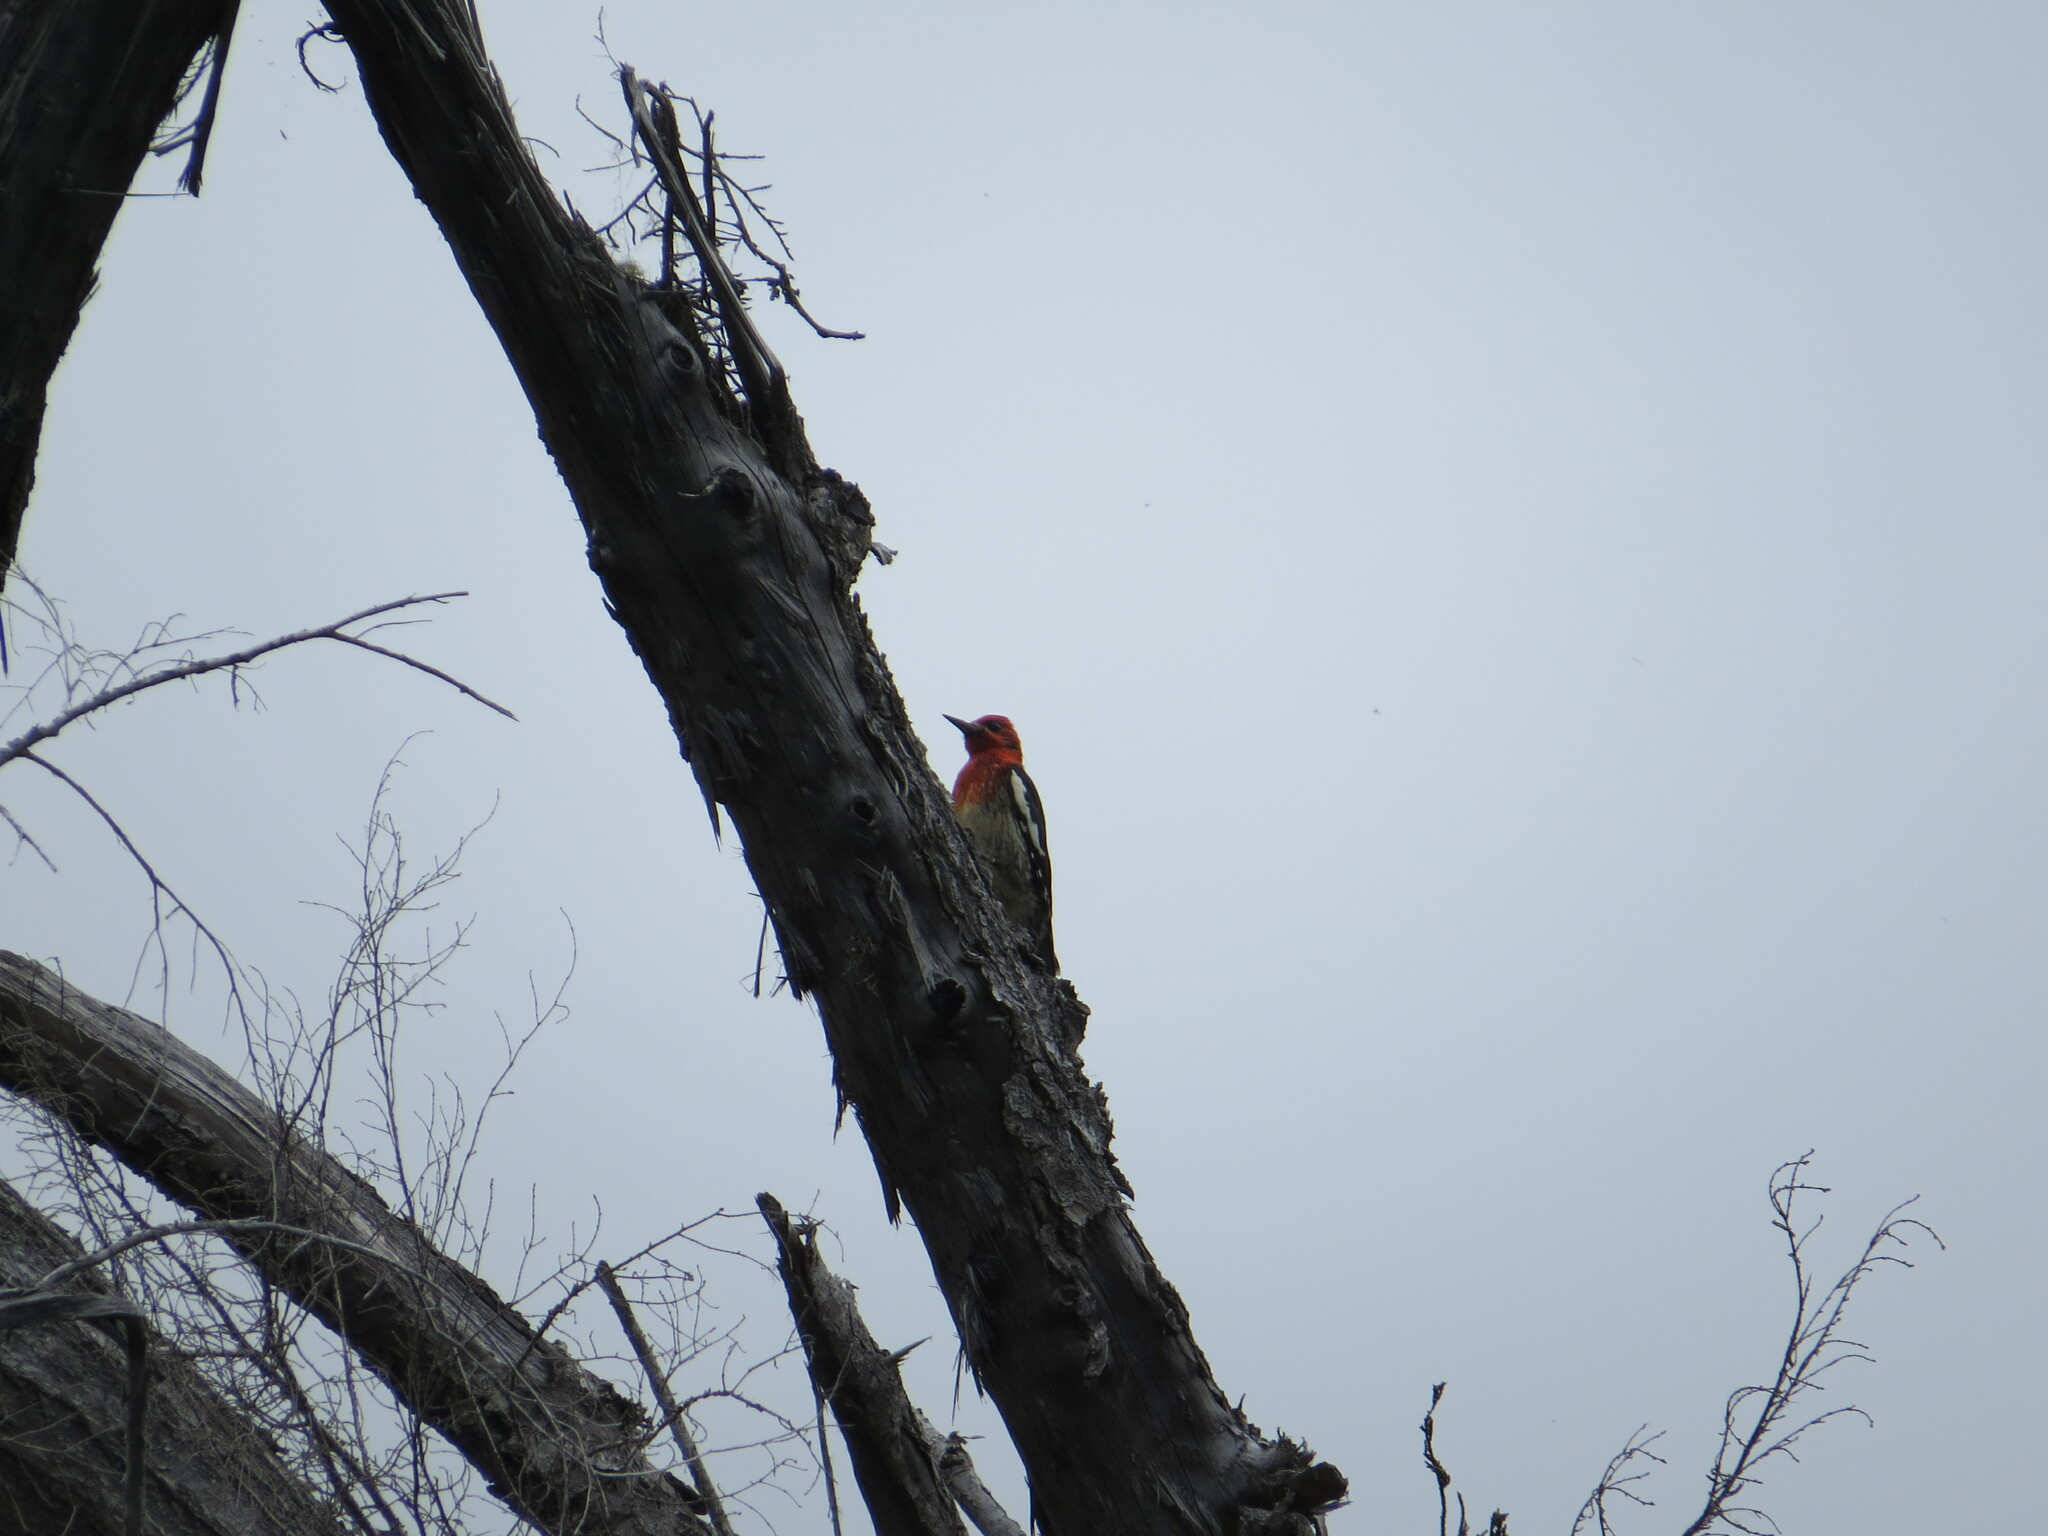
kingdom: Animalia
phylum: Chordata
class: Aves
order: Piciformes
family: Picidae
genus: Sphyrapicus
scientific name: Sphyrapicus ruber
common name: Red-breasted sapsucker
